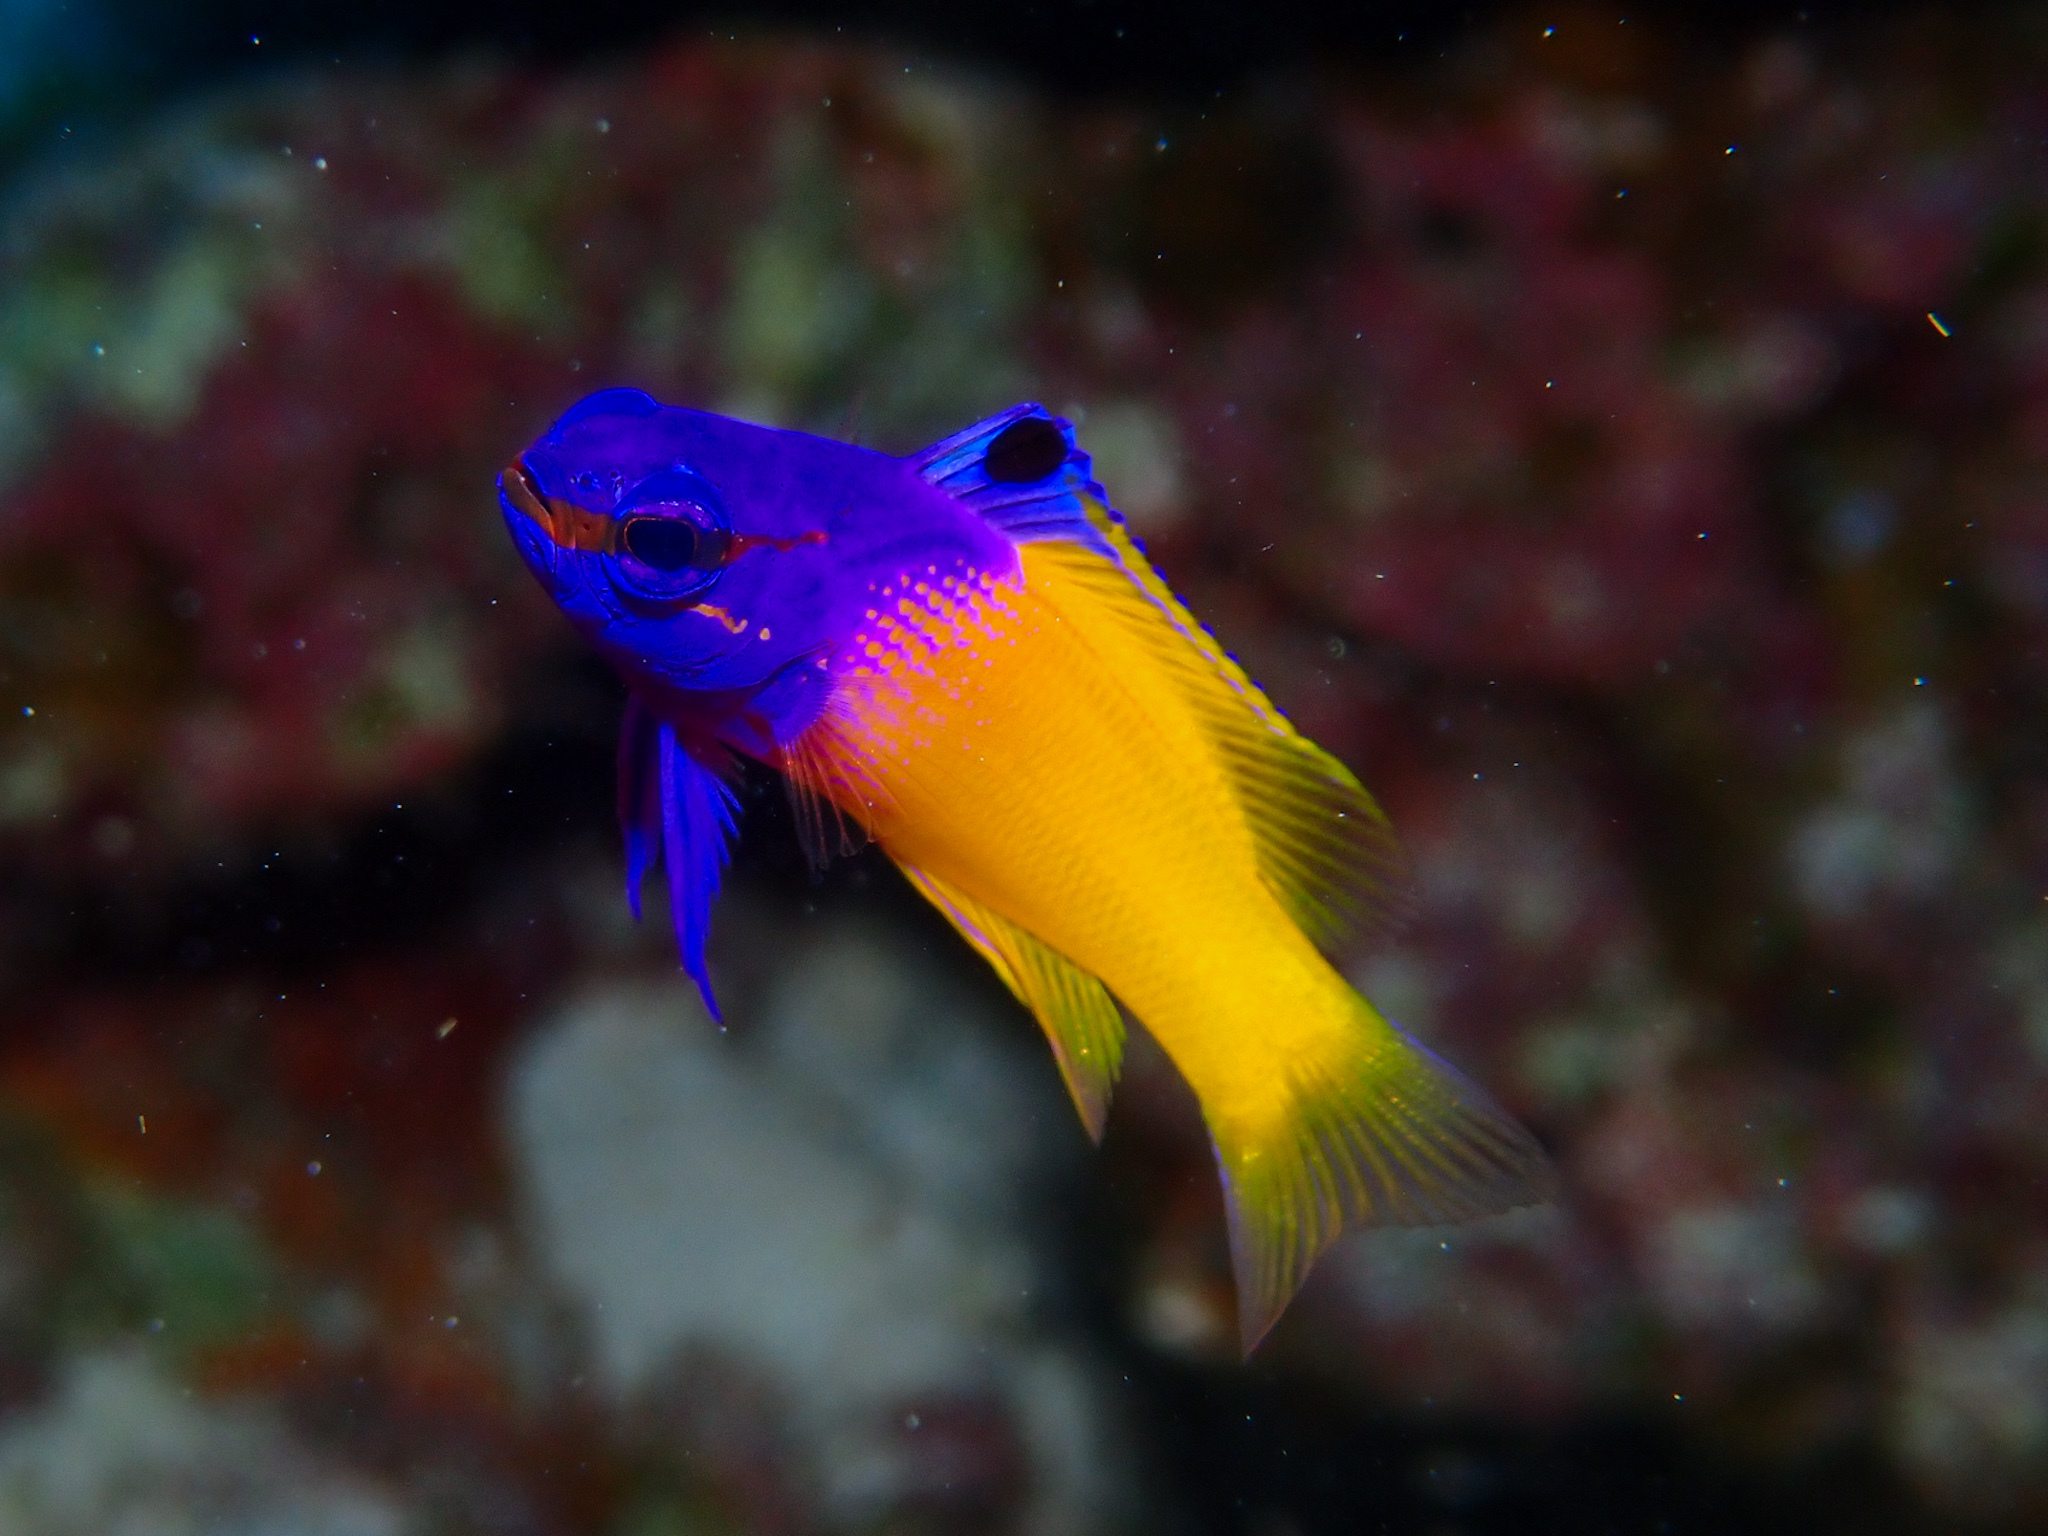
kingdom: Animalia
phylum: Chordata
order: Perciformes
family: Grammatidae
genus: Gramma
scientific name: Gramma loreto
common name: Fairy basslet
